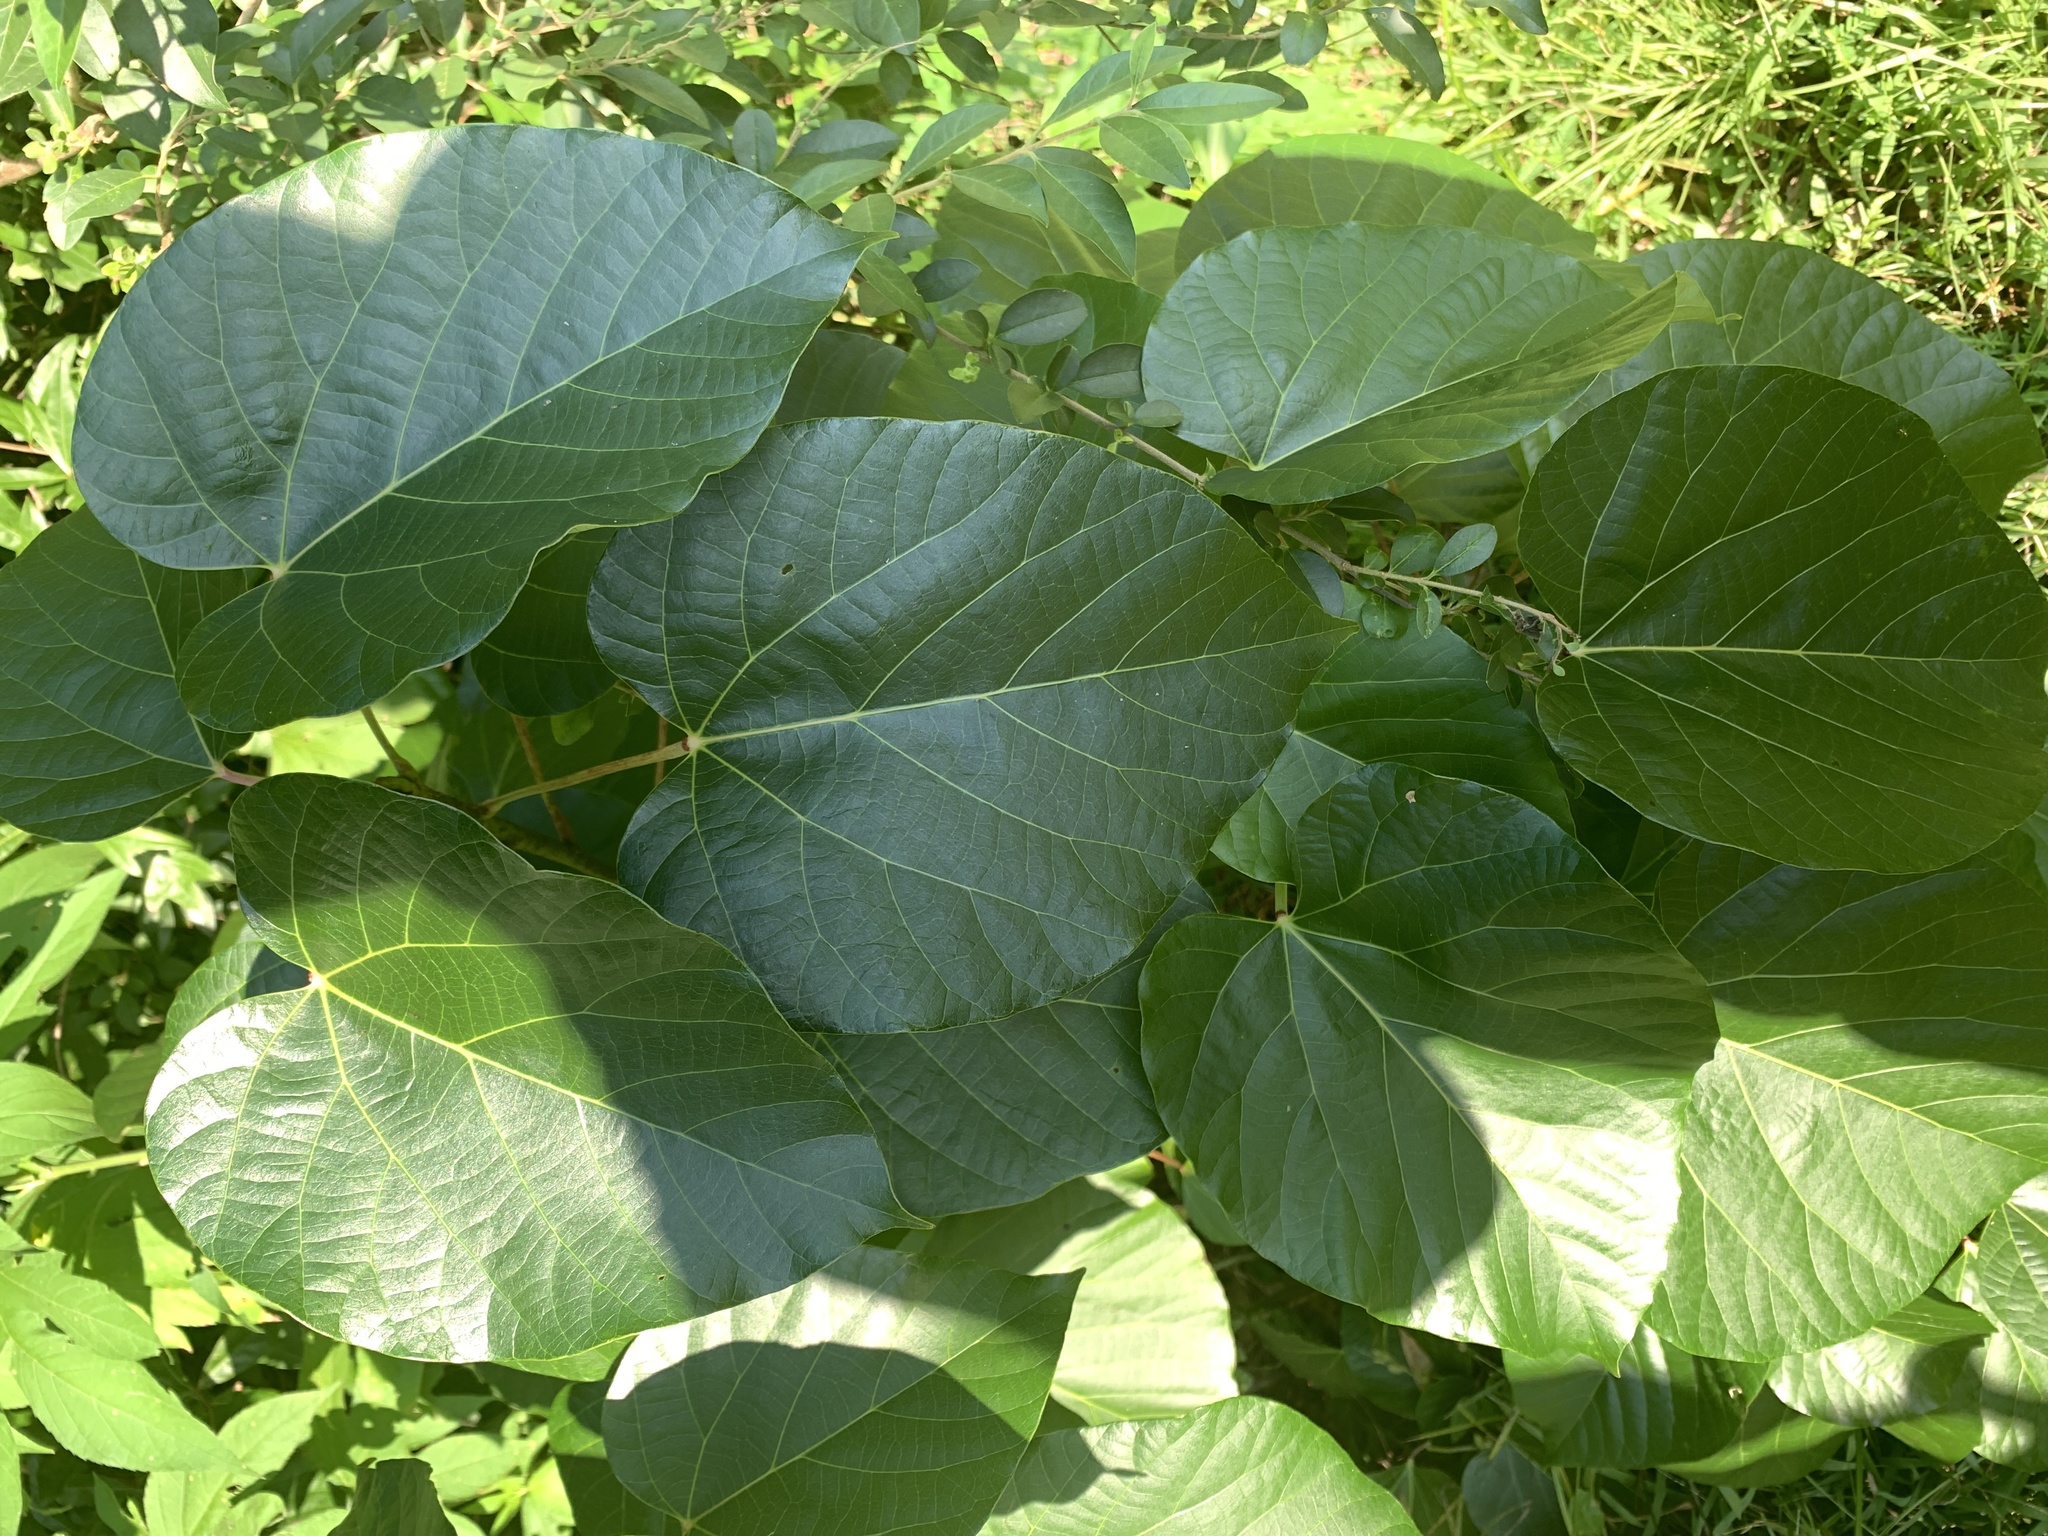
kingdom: Plantae
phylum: Tracheophyta
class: Magnoliopsida
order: Malpighiales
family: Euphorbiaceae
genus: Vernicia
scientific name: Vernicia fordii
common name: Tungoil tree
